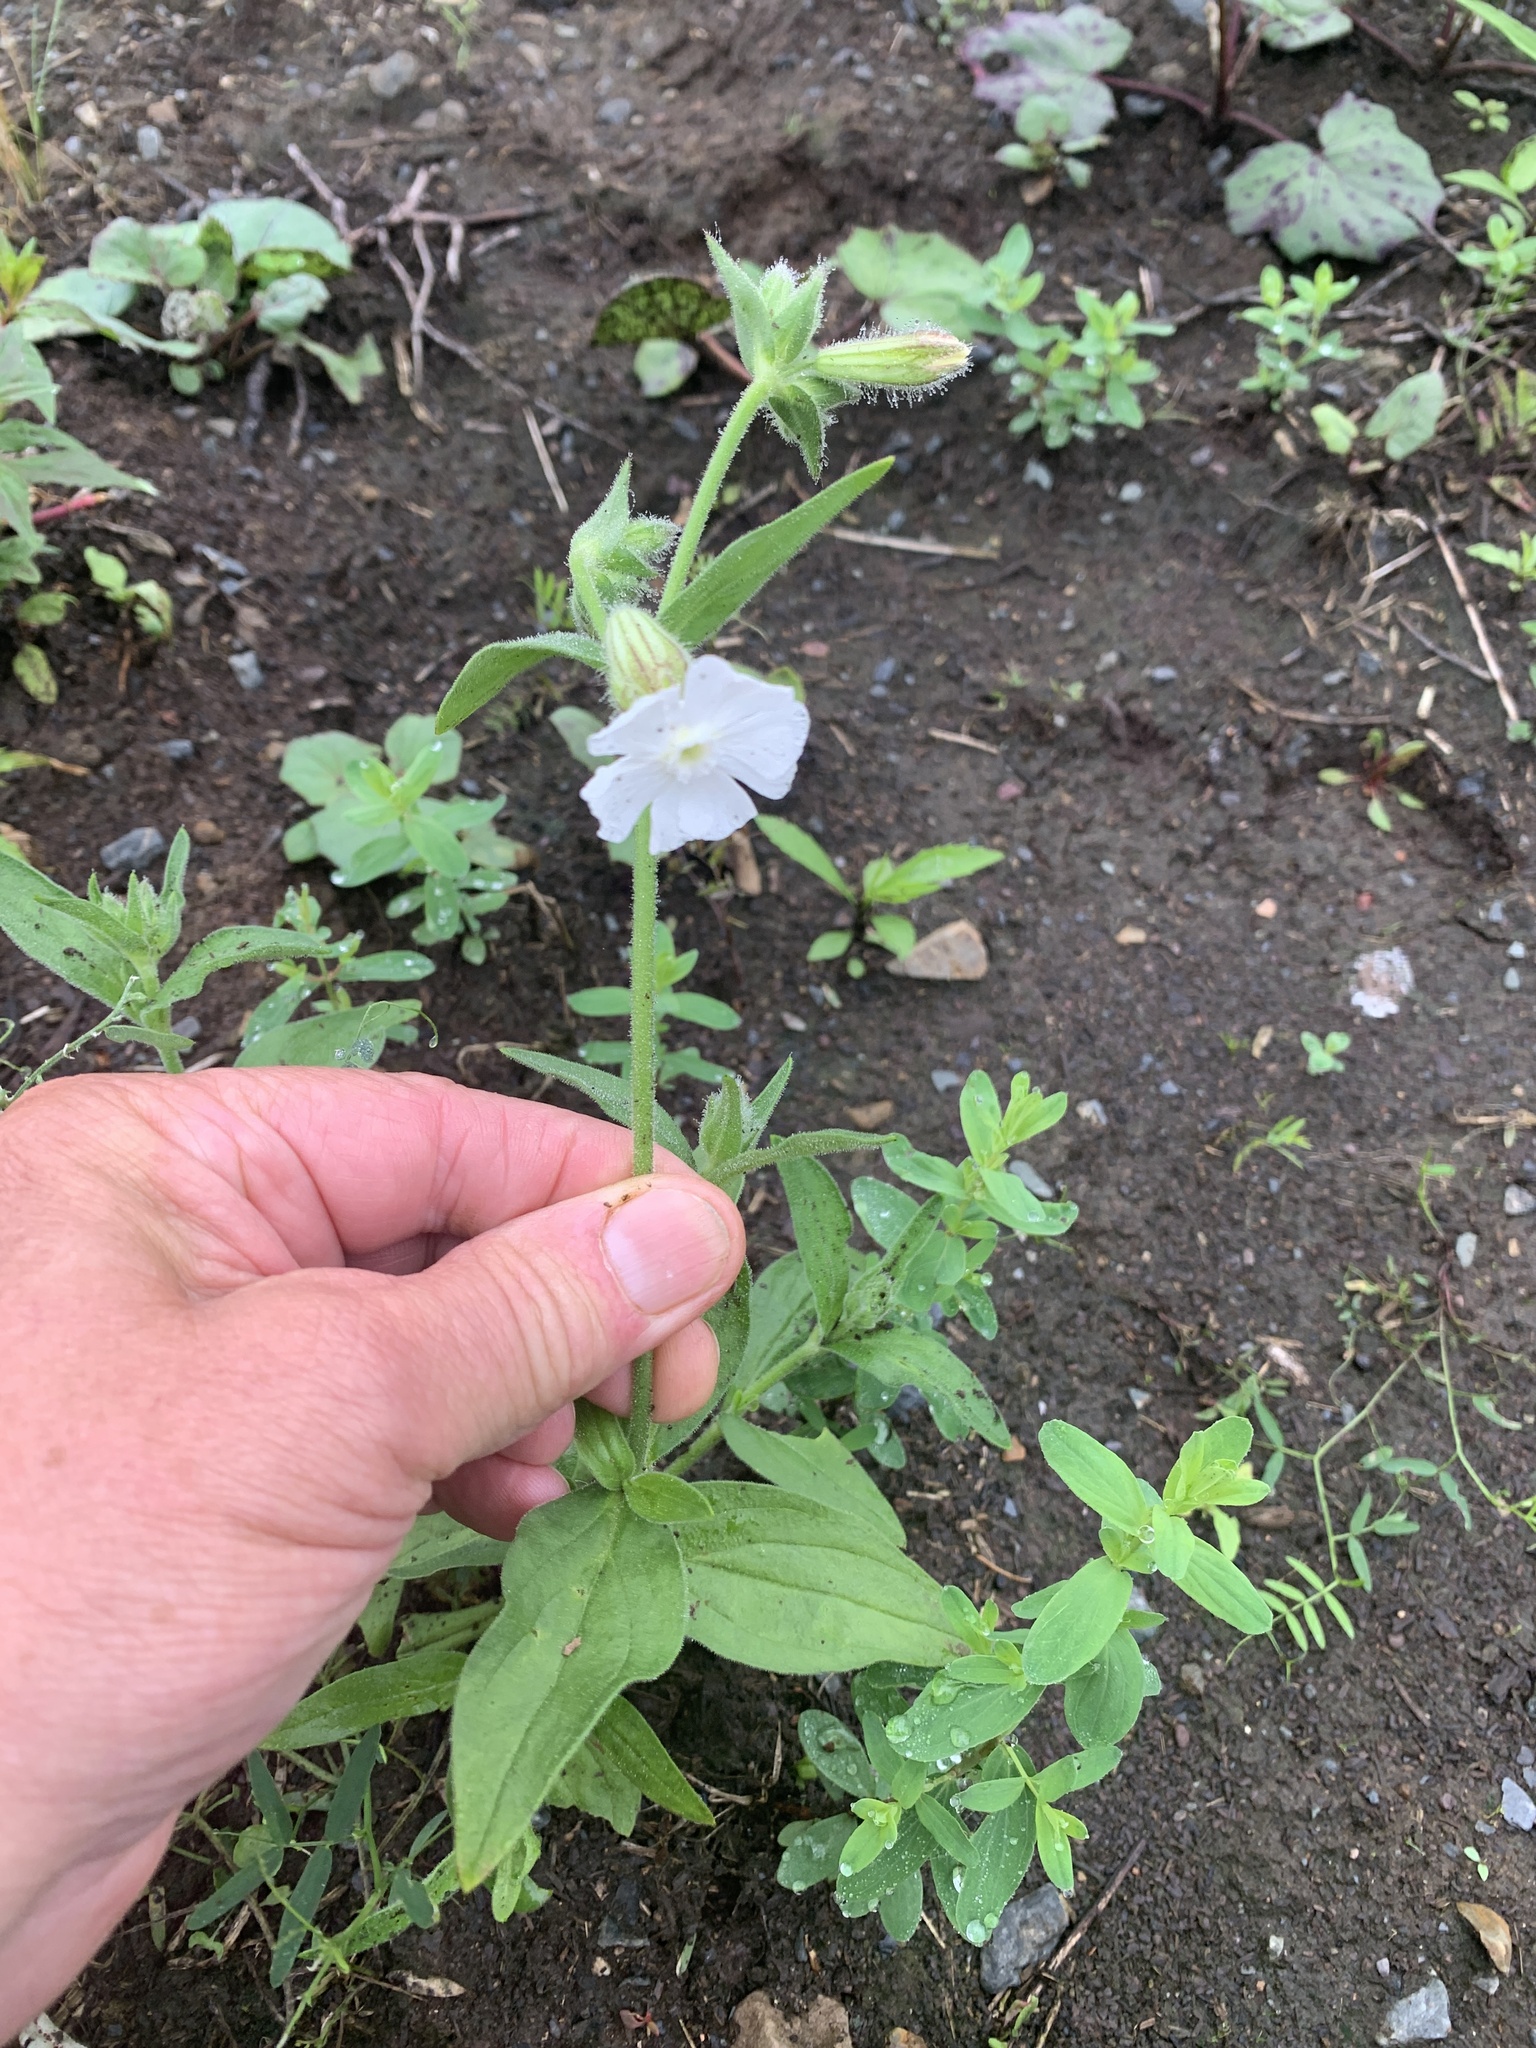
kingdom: Plantae
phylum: Tracheophyta
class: Magnoliopsida
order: Caryophyllales
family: Caryophyllaceae
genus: Silene
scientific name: Silene latifolia
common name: White campion
